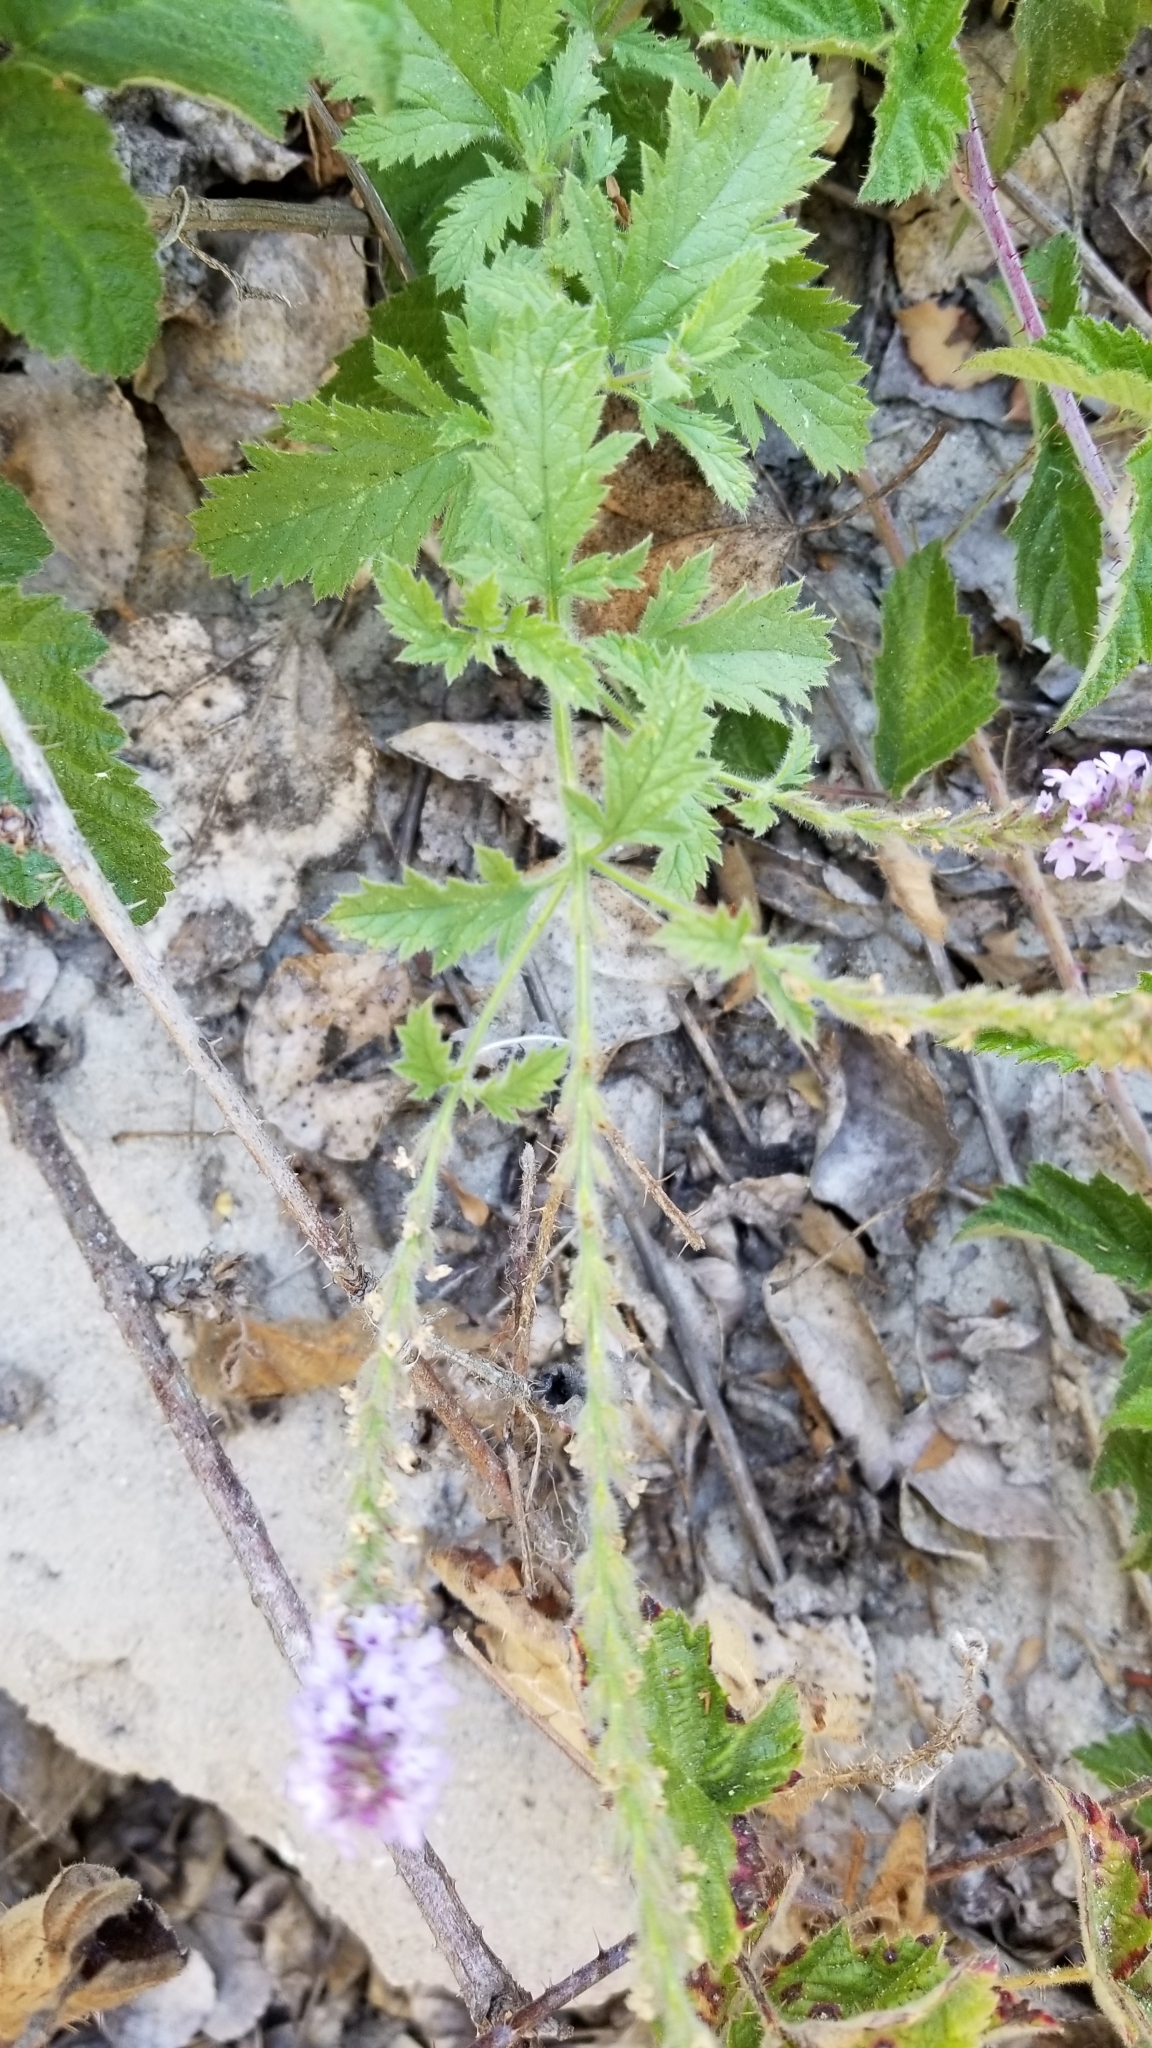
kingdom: Plantae
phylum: Tracheophyta
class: Magnoliopsida
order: Lamiales
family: Verbenaceae
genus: Verbena
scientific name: Verbena lasiostachys
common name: Vervain
